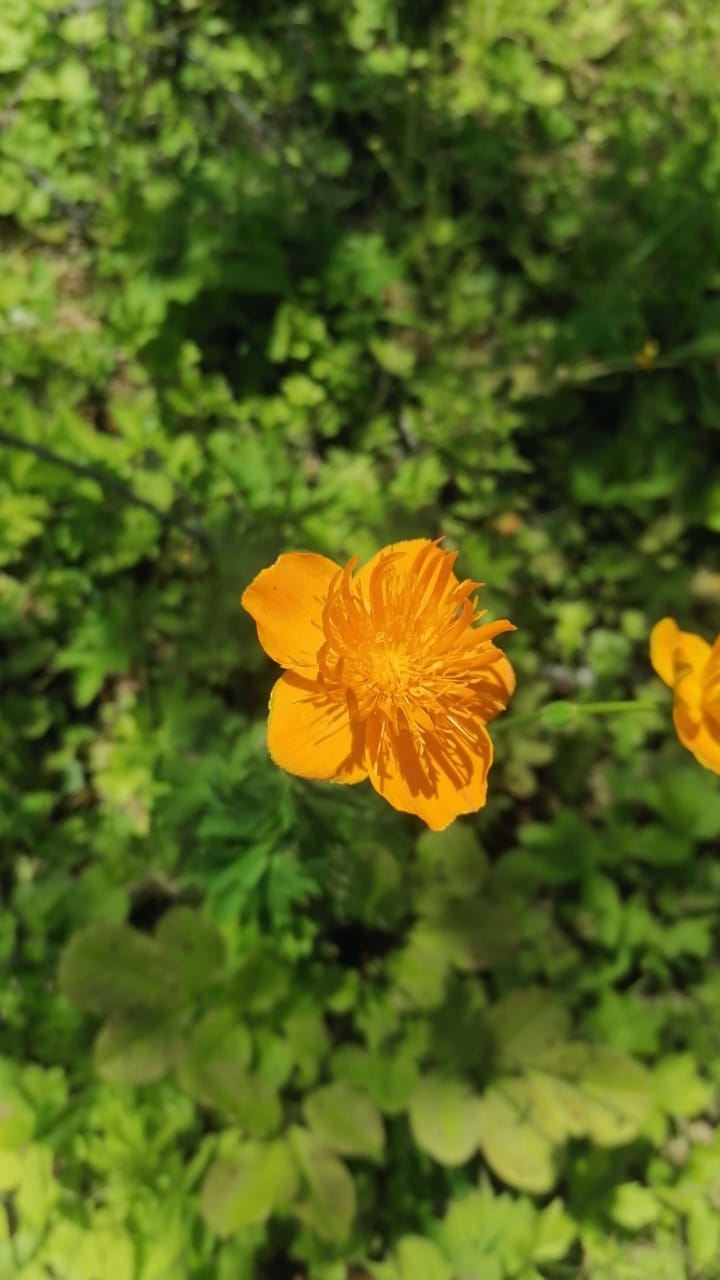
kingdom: Plantae
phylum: Tracheophyta
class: Magnoliopsida
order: Ranunculales
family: Ranunculaceae
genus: Trollius
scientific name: Trollius chinensis
